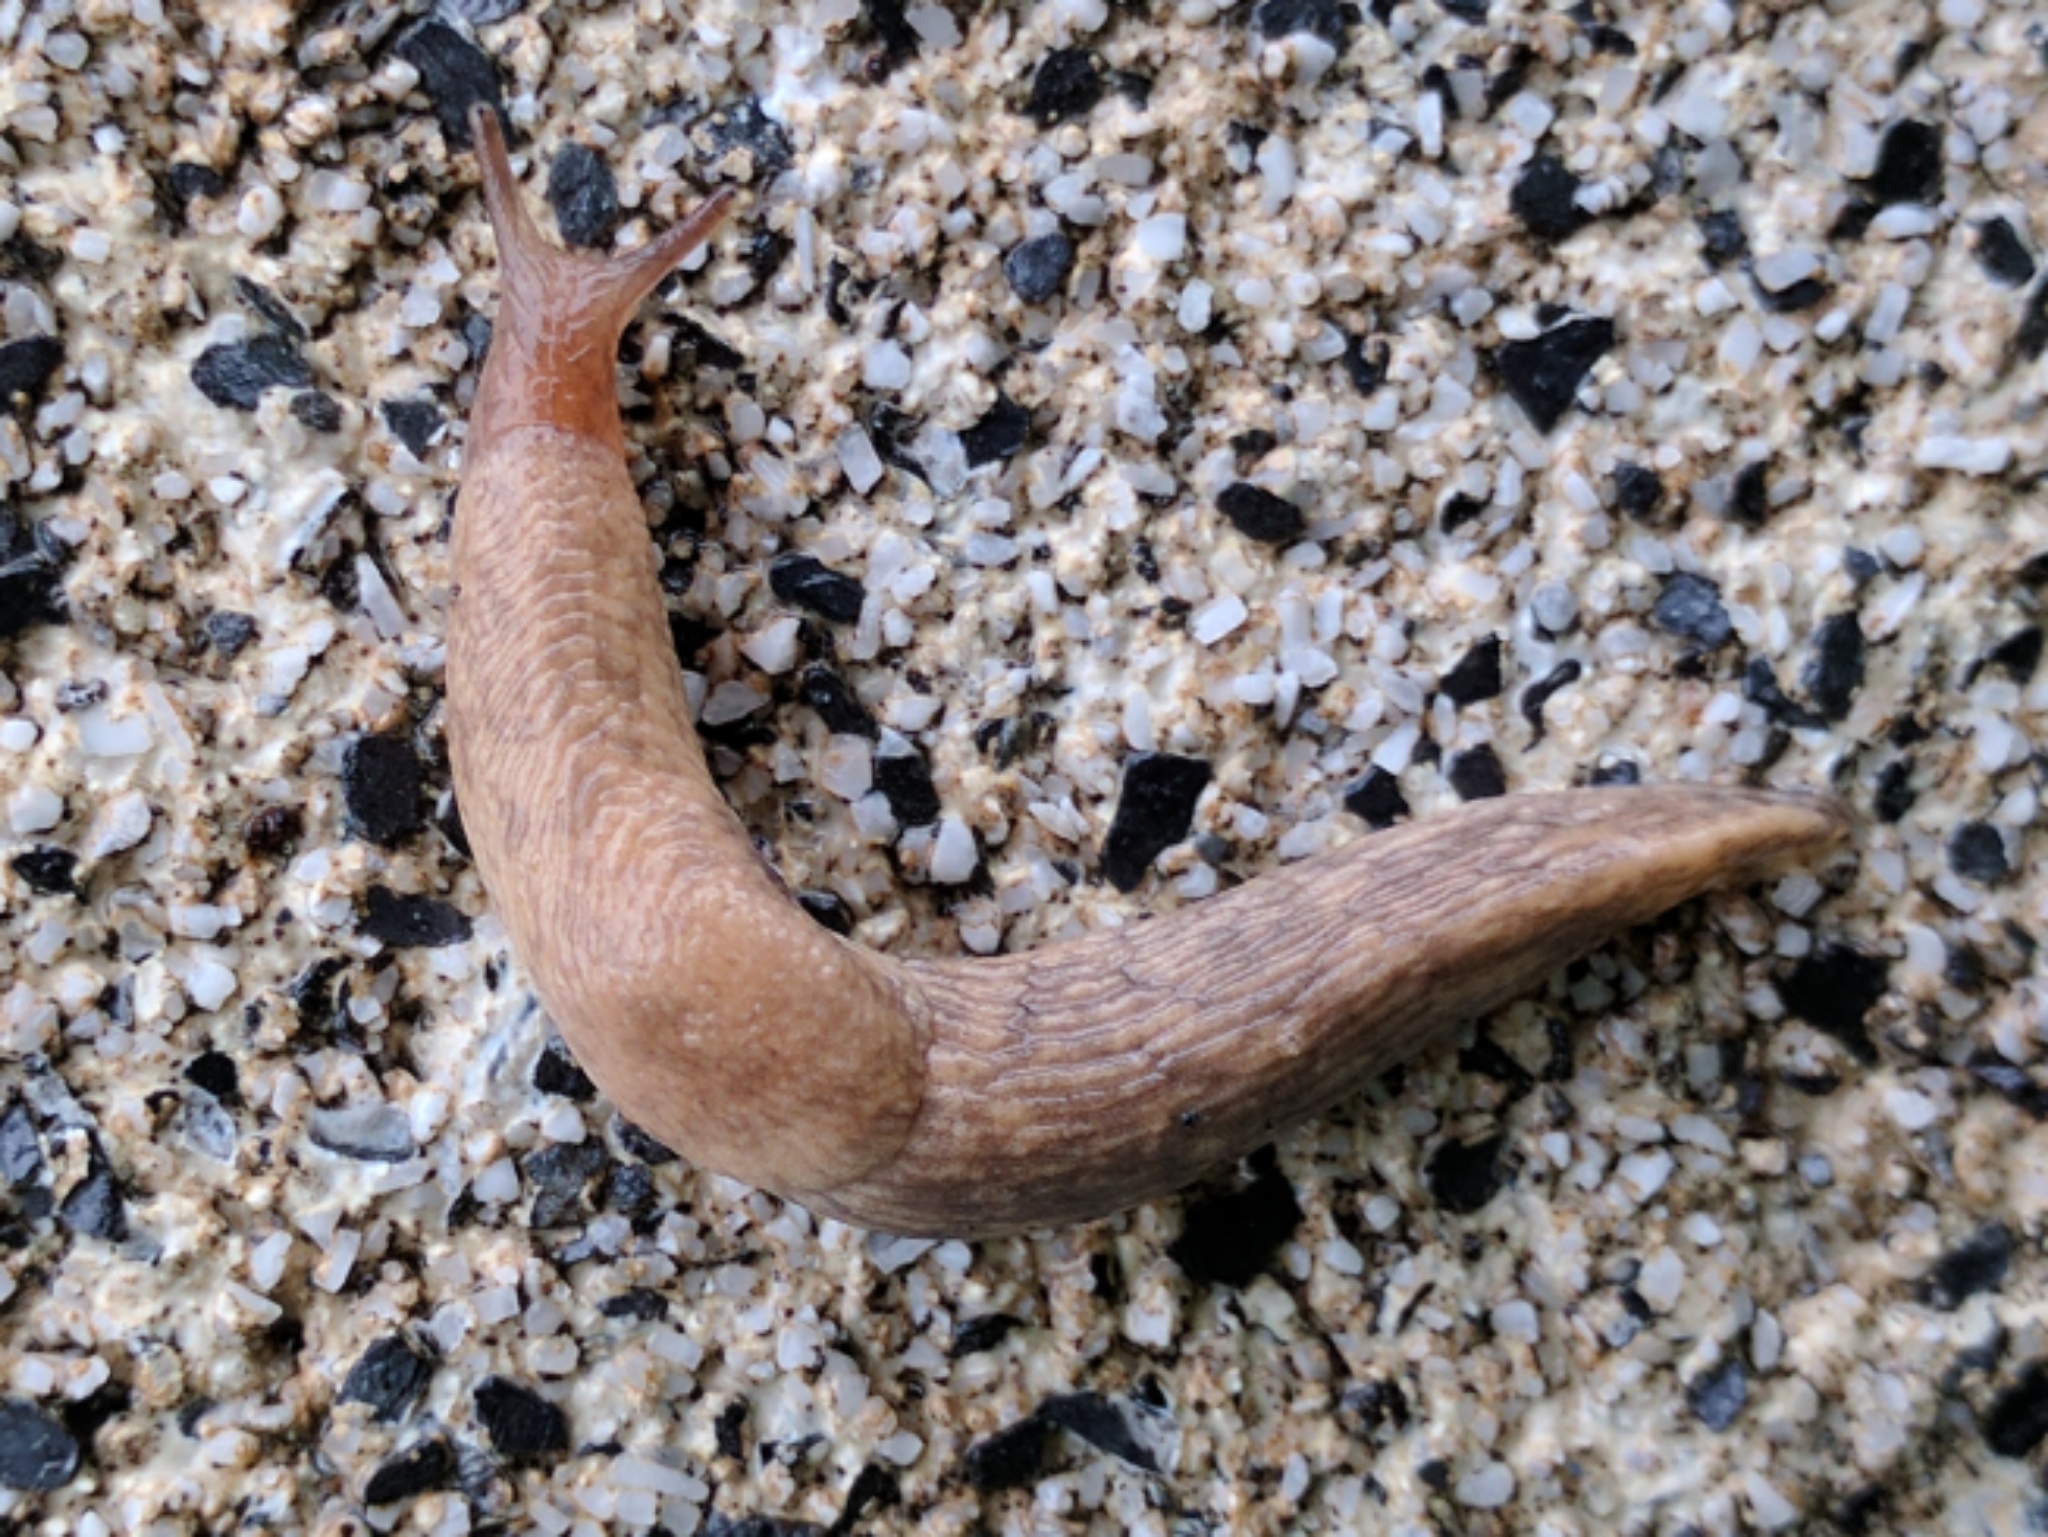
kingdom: Animalia
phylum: Mollusca
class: Gastropoda
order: Stylommatophora
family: Agriolimacidae
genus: Deroceras
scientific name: Deroceras reticulatum
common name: Gray field slug
